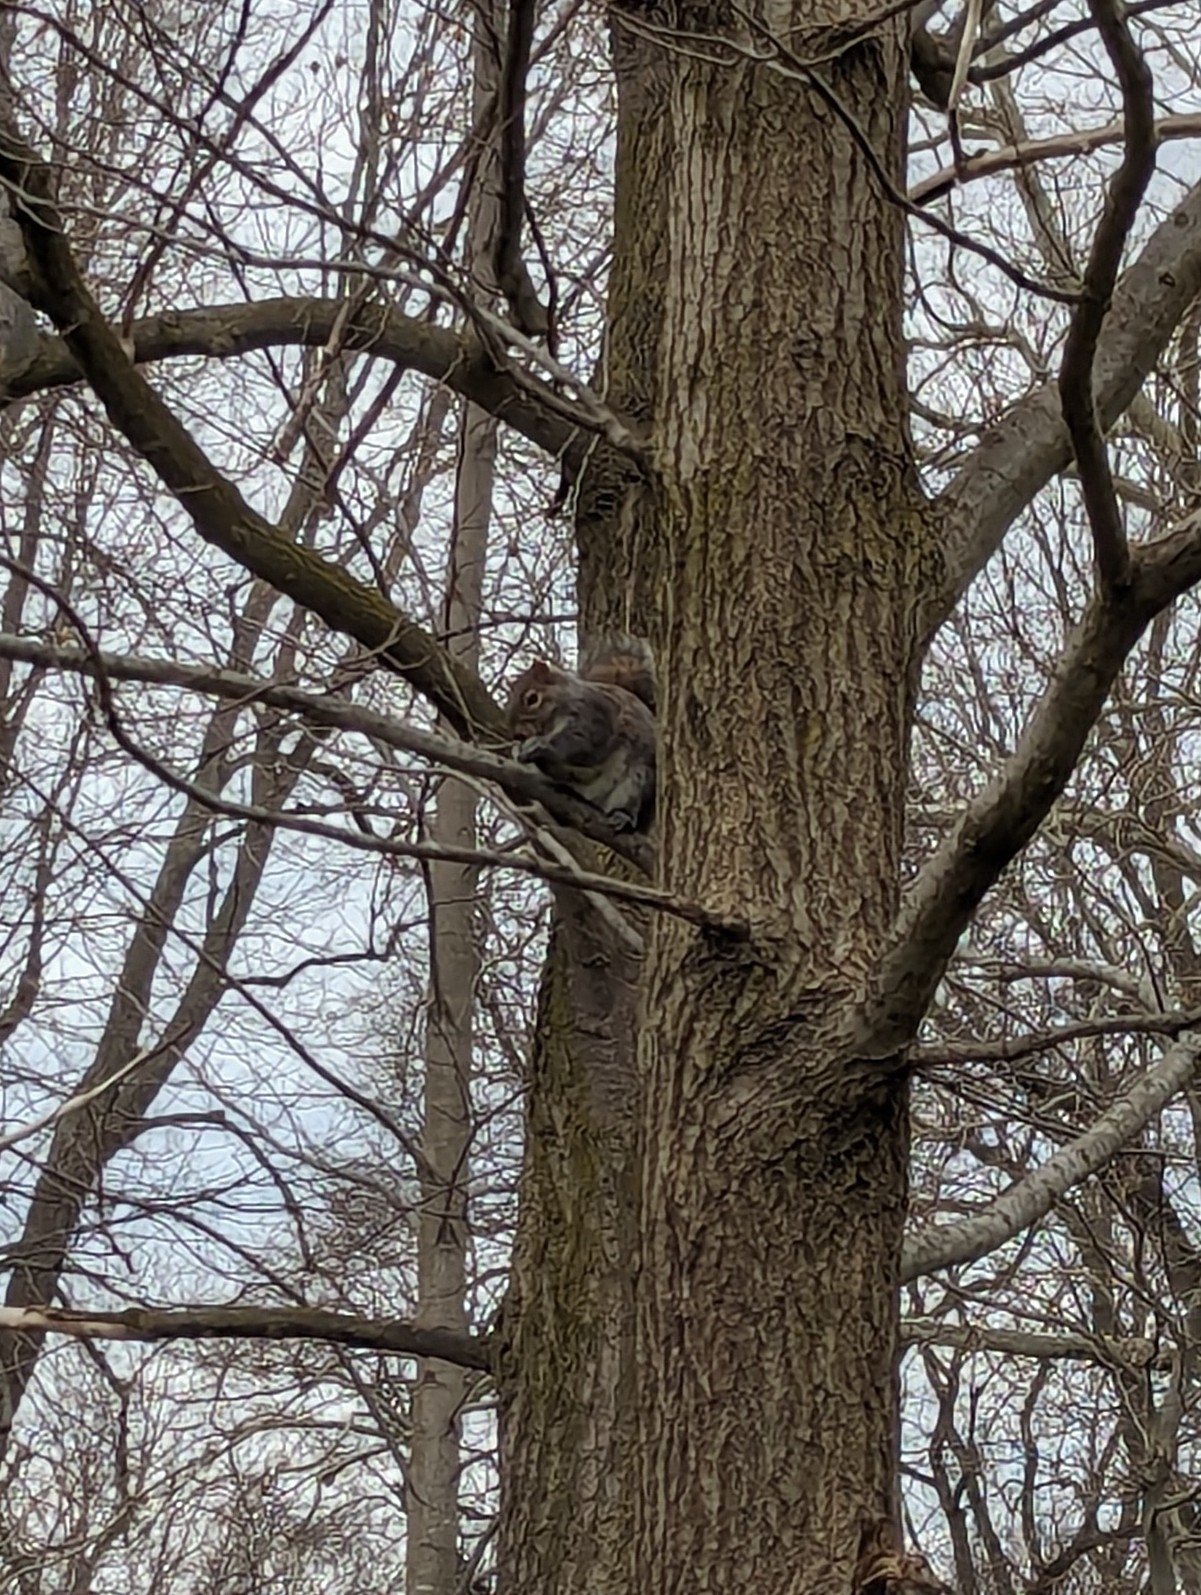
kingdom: Animalia
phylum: Chordata
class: Mammalia
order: Rodentia
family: Sciuridae
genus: Sciurus
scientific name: Sciurus carolinensis
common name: Eastern gray squirrel
